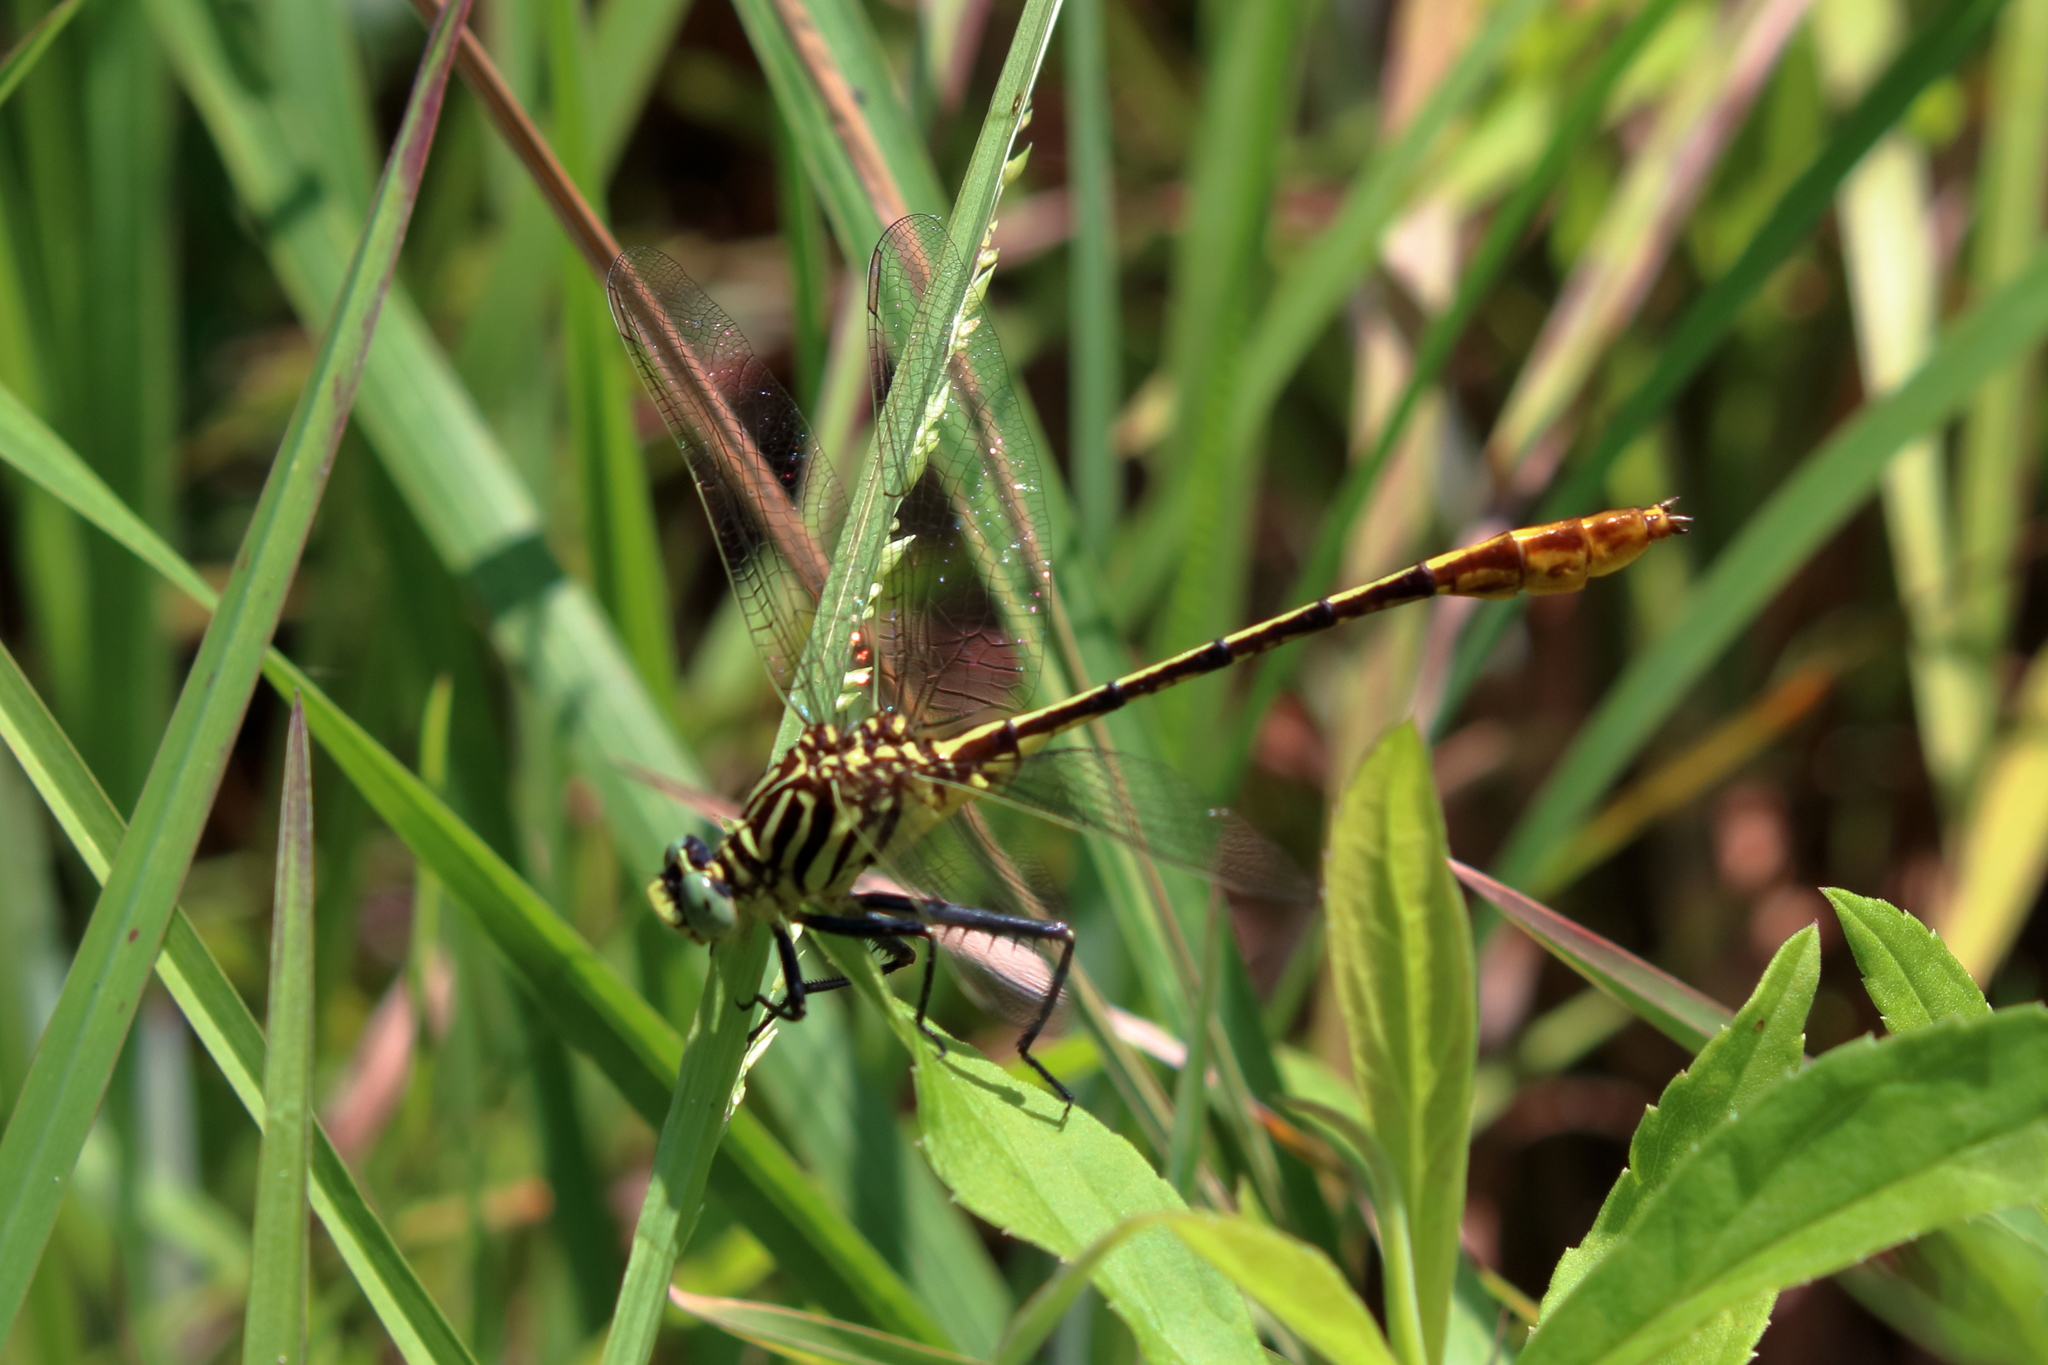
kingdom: Animalia
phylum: Arthropoda
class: Insecta
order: Odonata
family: Gomphidae
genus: Dromogomphus
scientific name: Dromogomphus armatus
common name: Southeastern spinyleg
